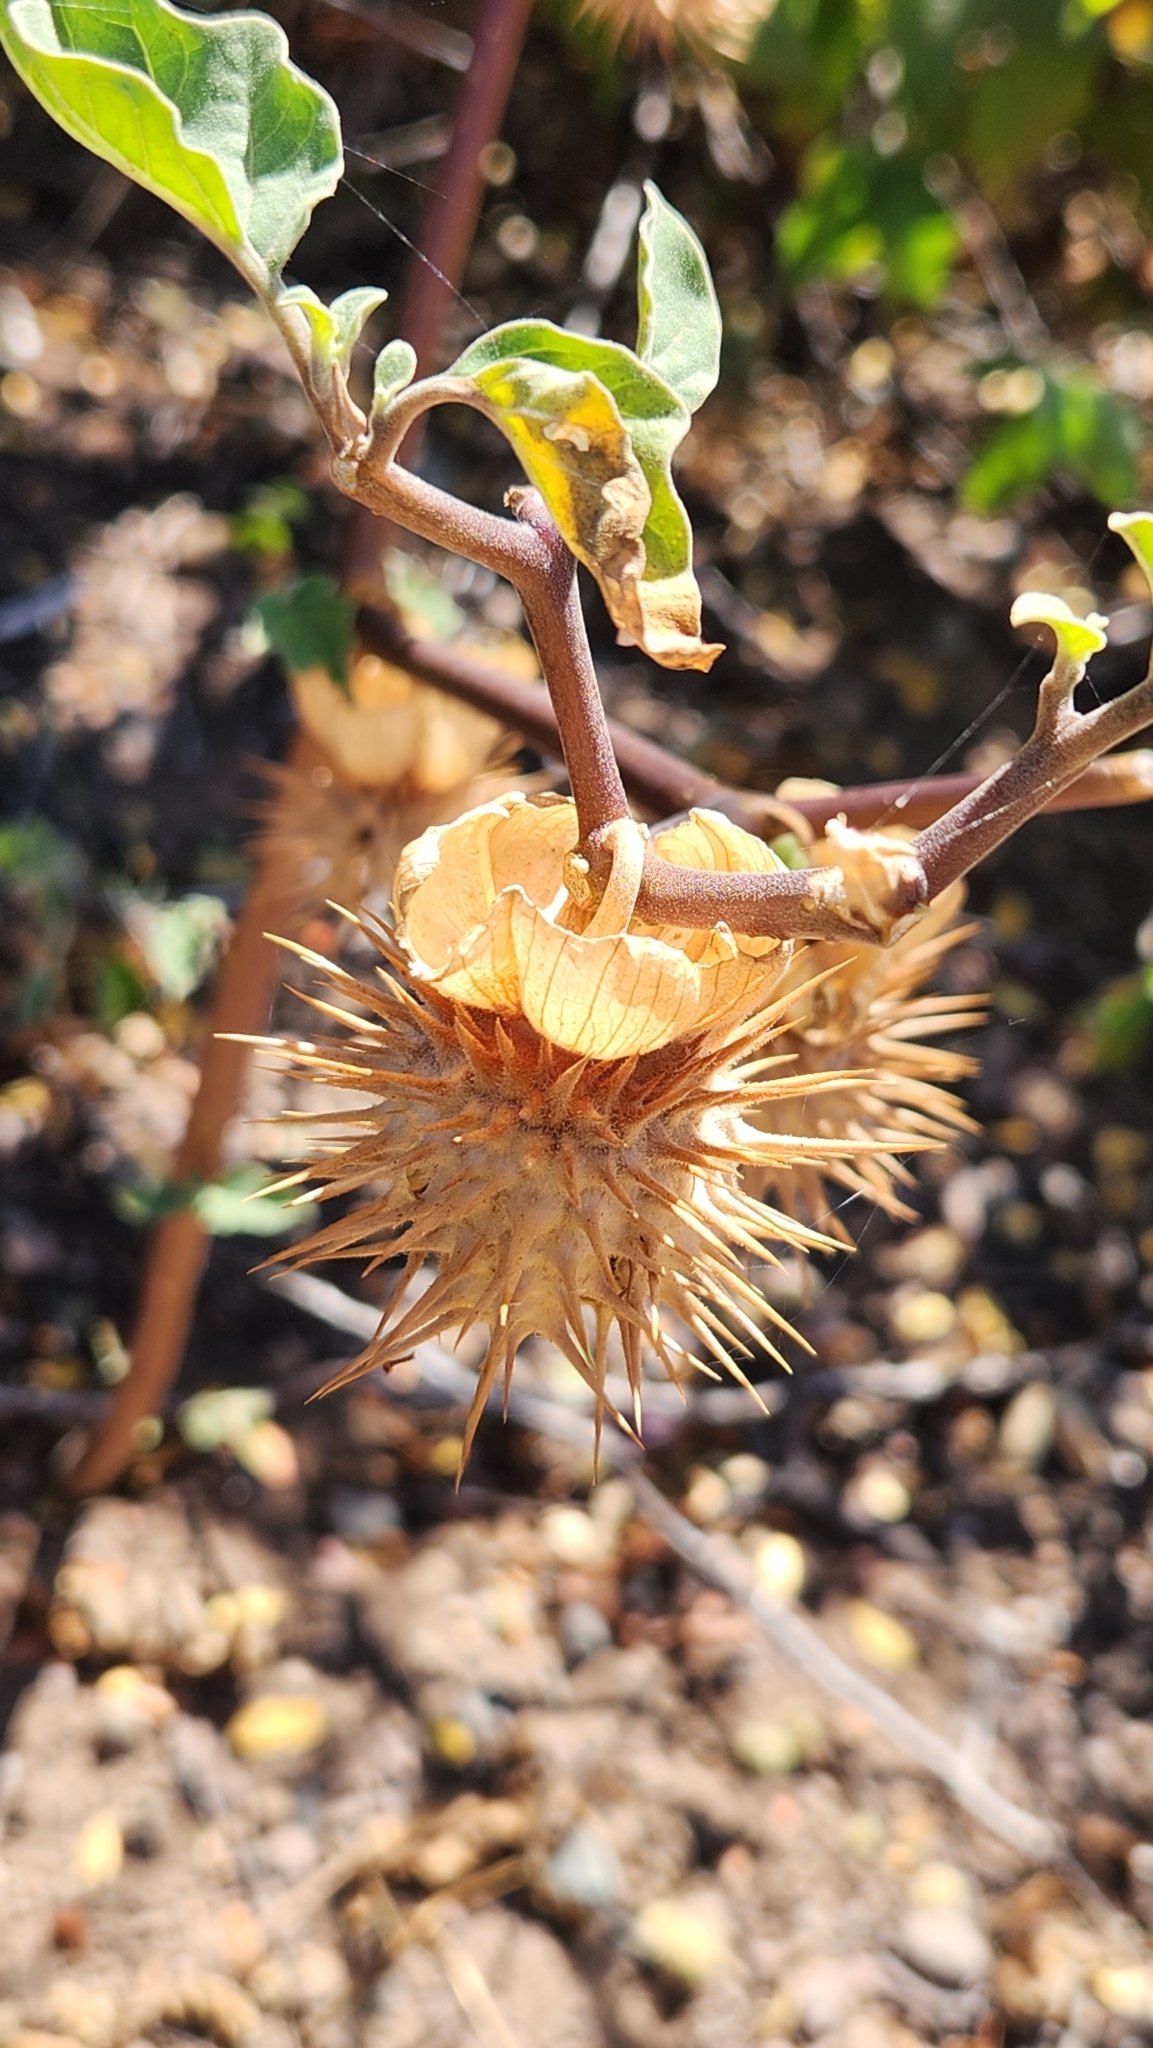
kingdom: Plantae
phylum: Tracheophyta
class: Magnoliopsida
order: Solanales
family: Solanaceae
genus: Datura
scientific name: Datura discolor
